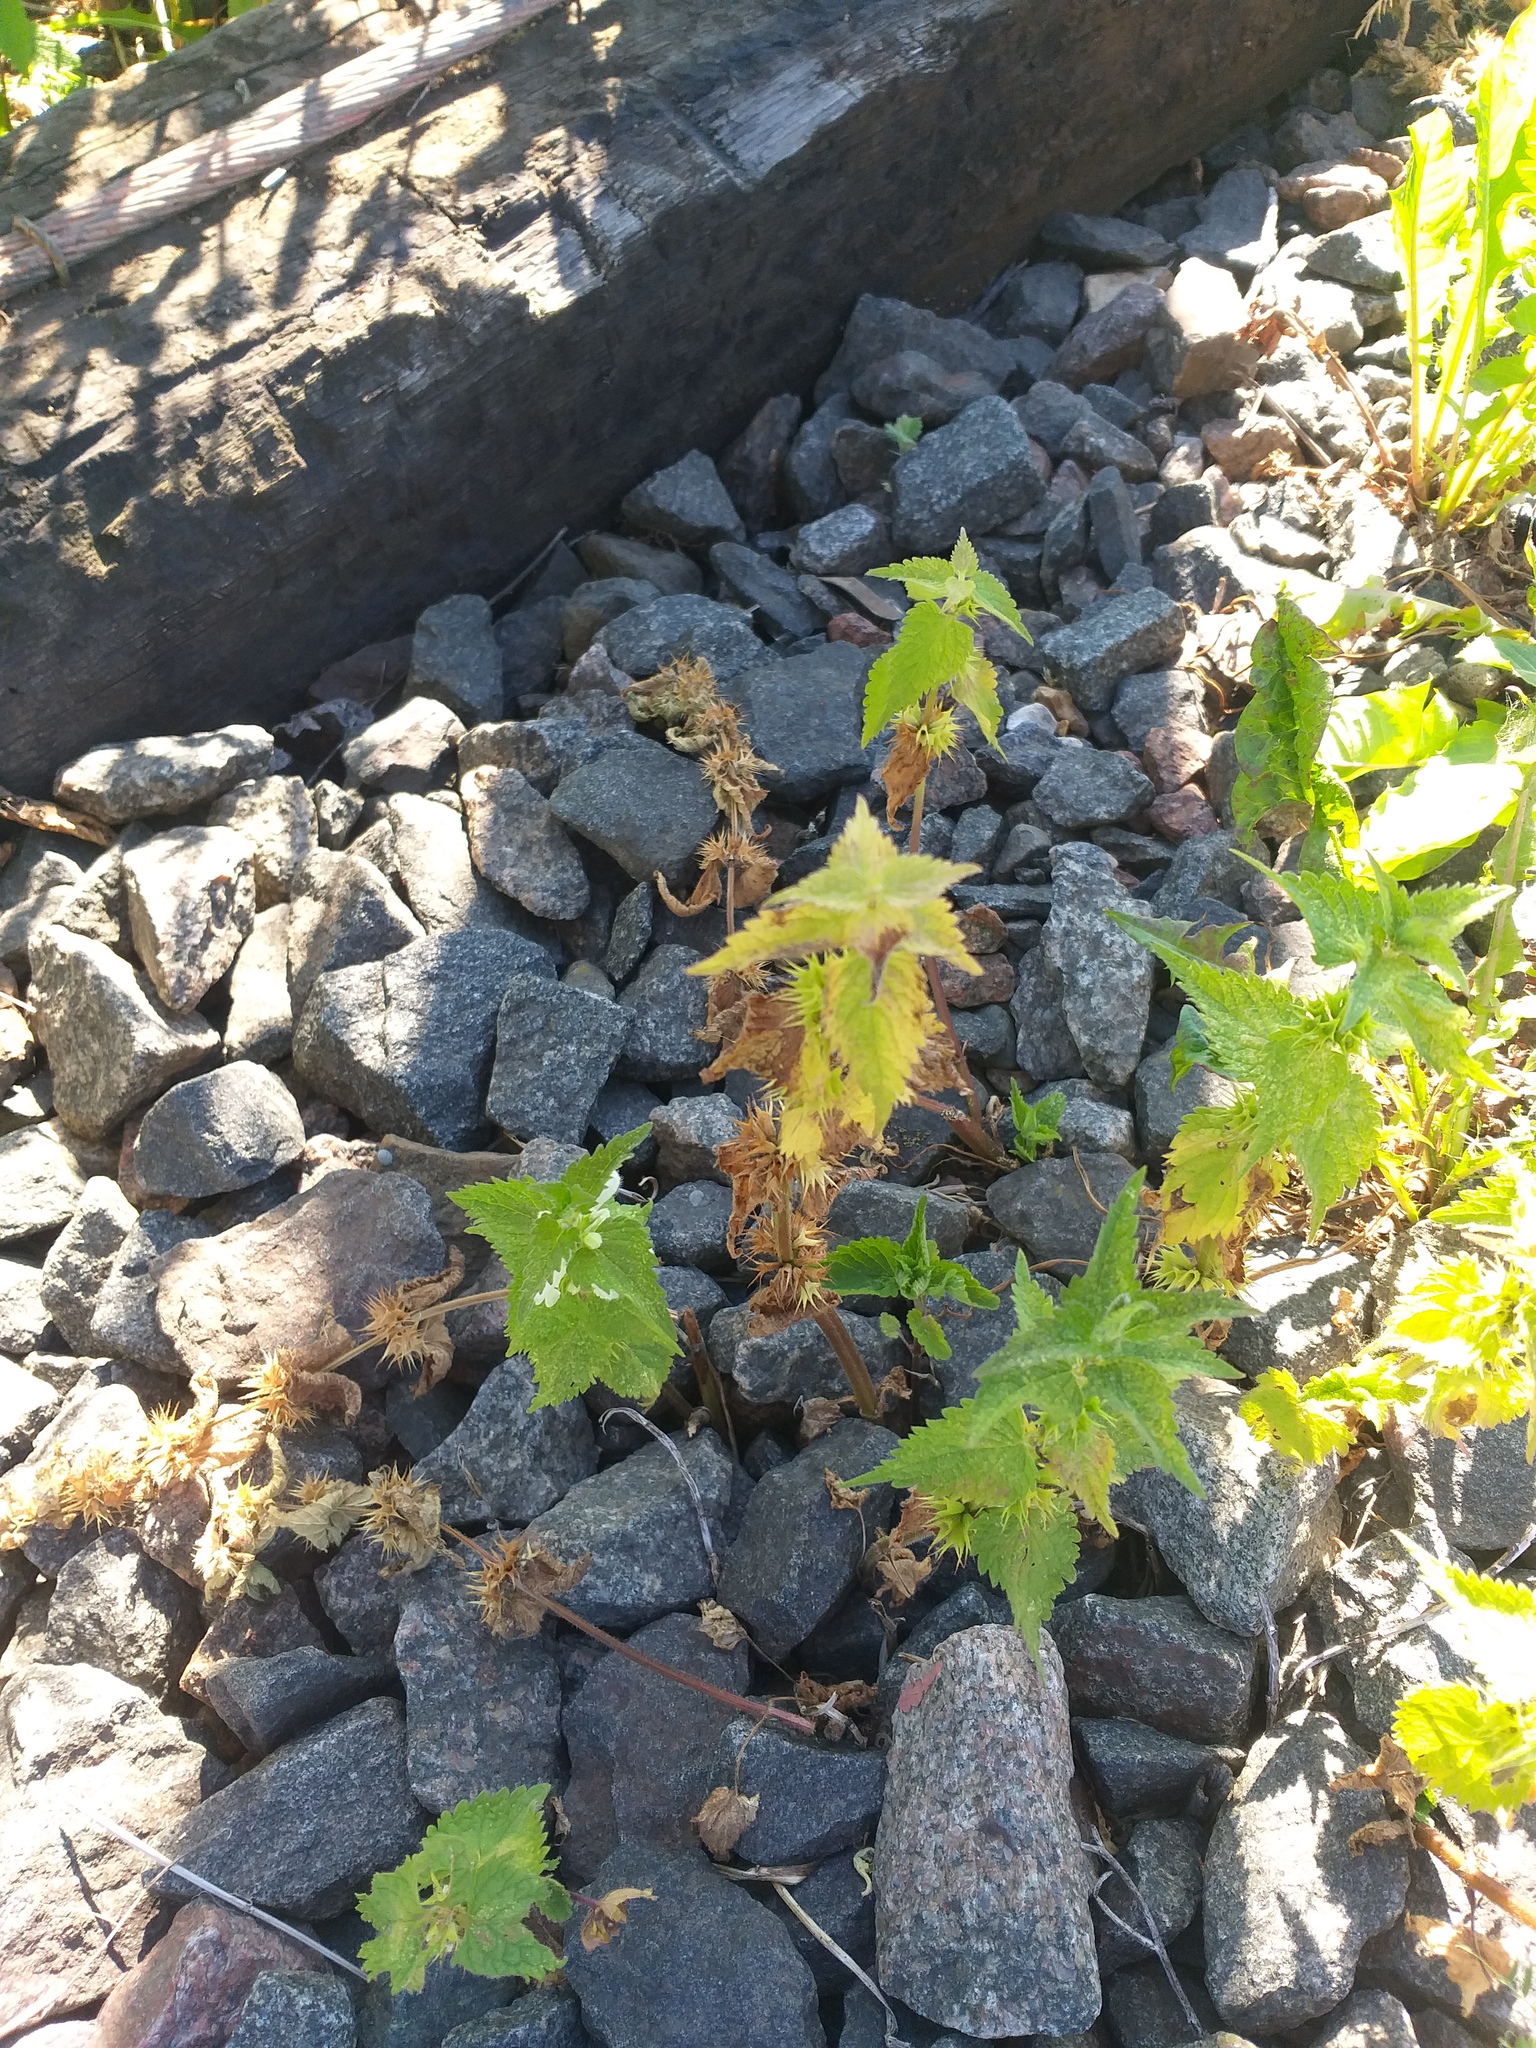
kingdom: Plantae
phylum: Tracheophyta
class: Magnoliopsida
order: Lamiales
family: Lamiaceae
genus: Lamium
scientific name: Lamium album
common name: White dead-nettle
